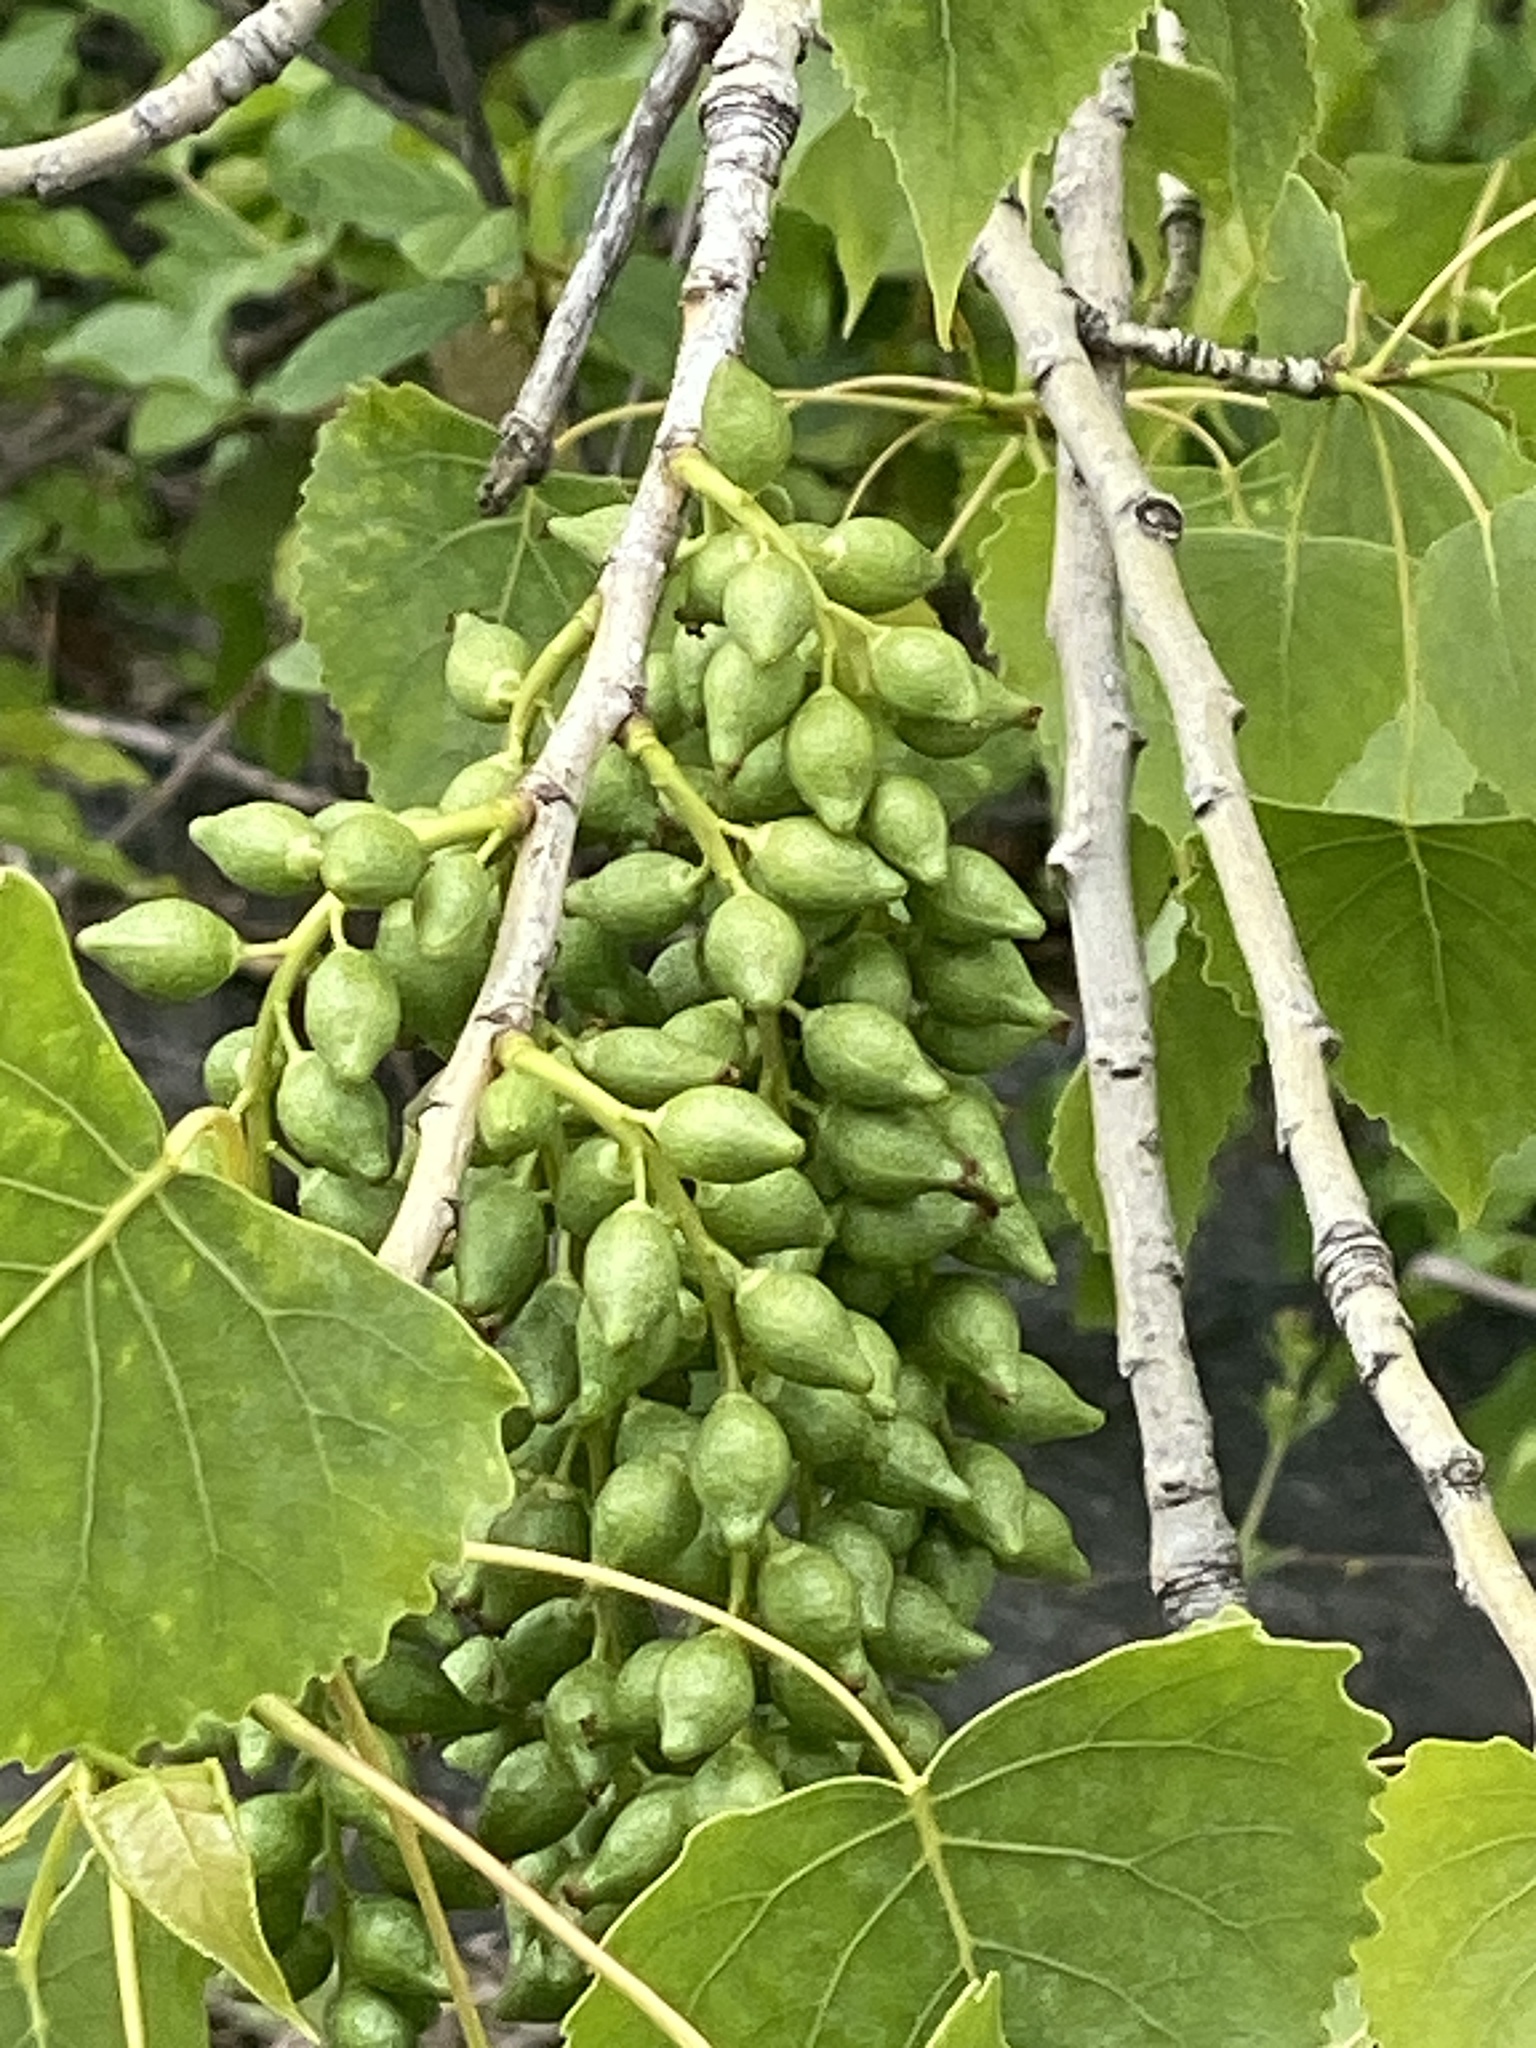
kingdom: Plantae
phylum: Tracheophyta
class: Magnoliopsida
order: Malpighiales
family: Salicaceae
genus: Populus
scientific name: Populus deltoides
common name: Eastern cottonwood
